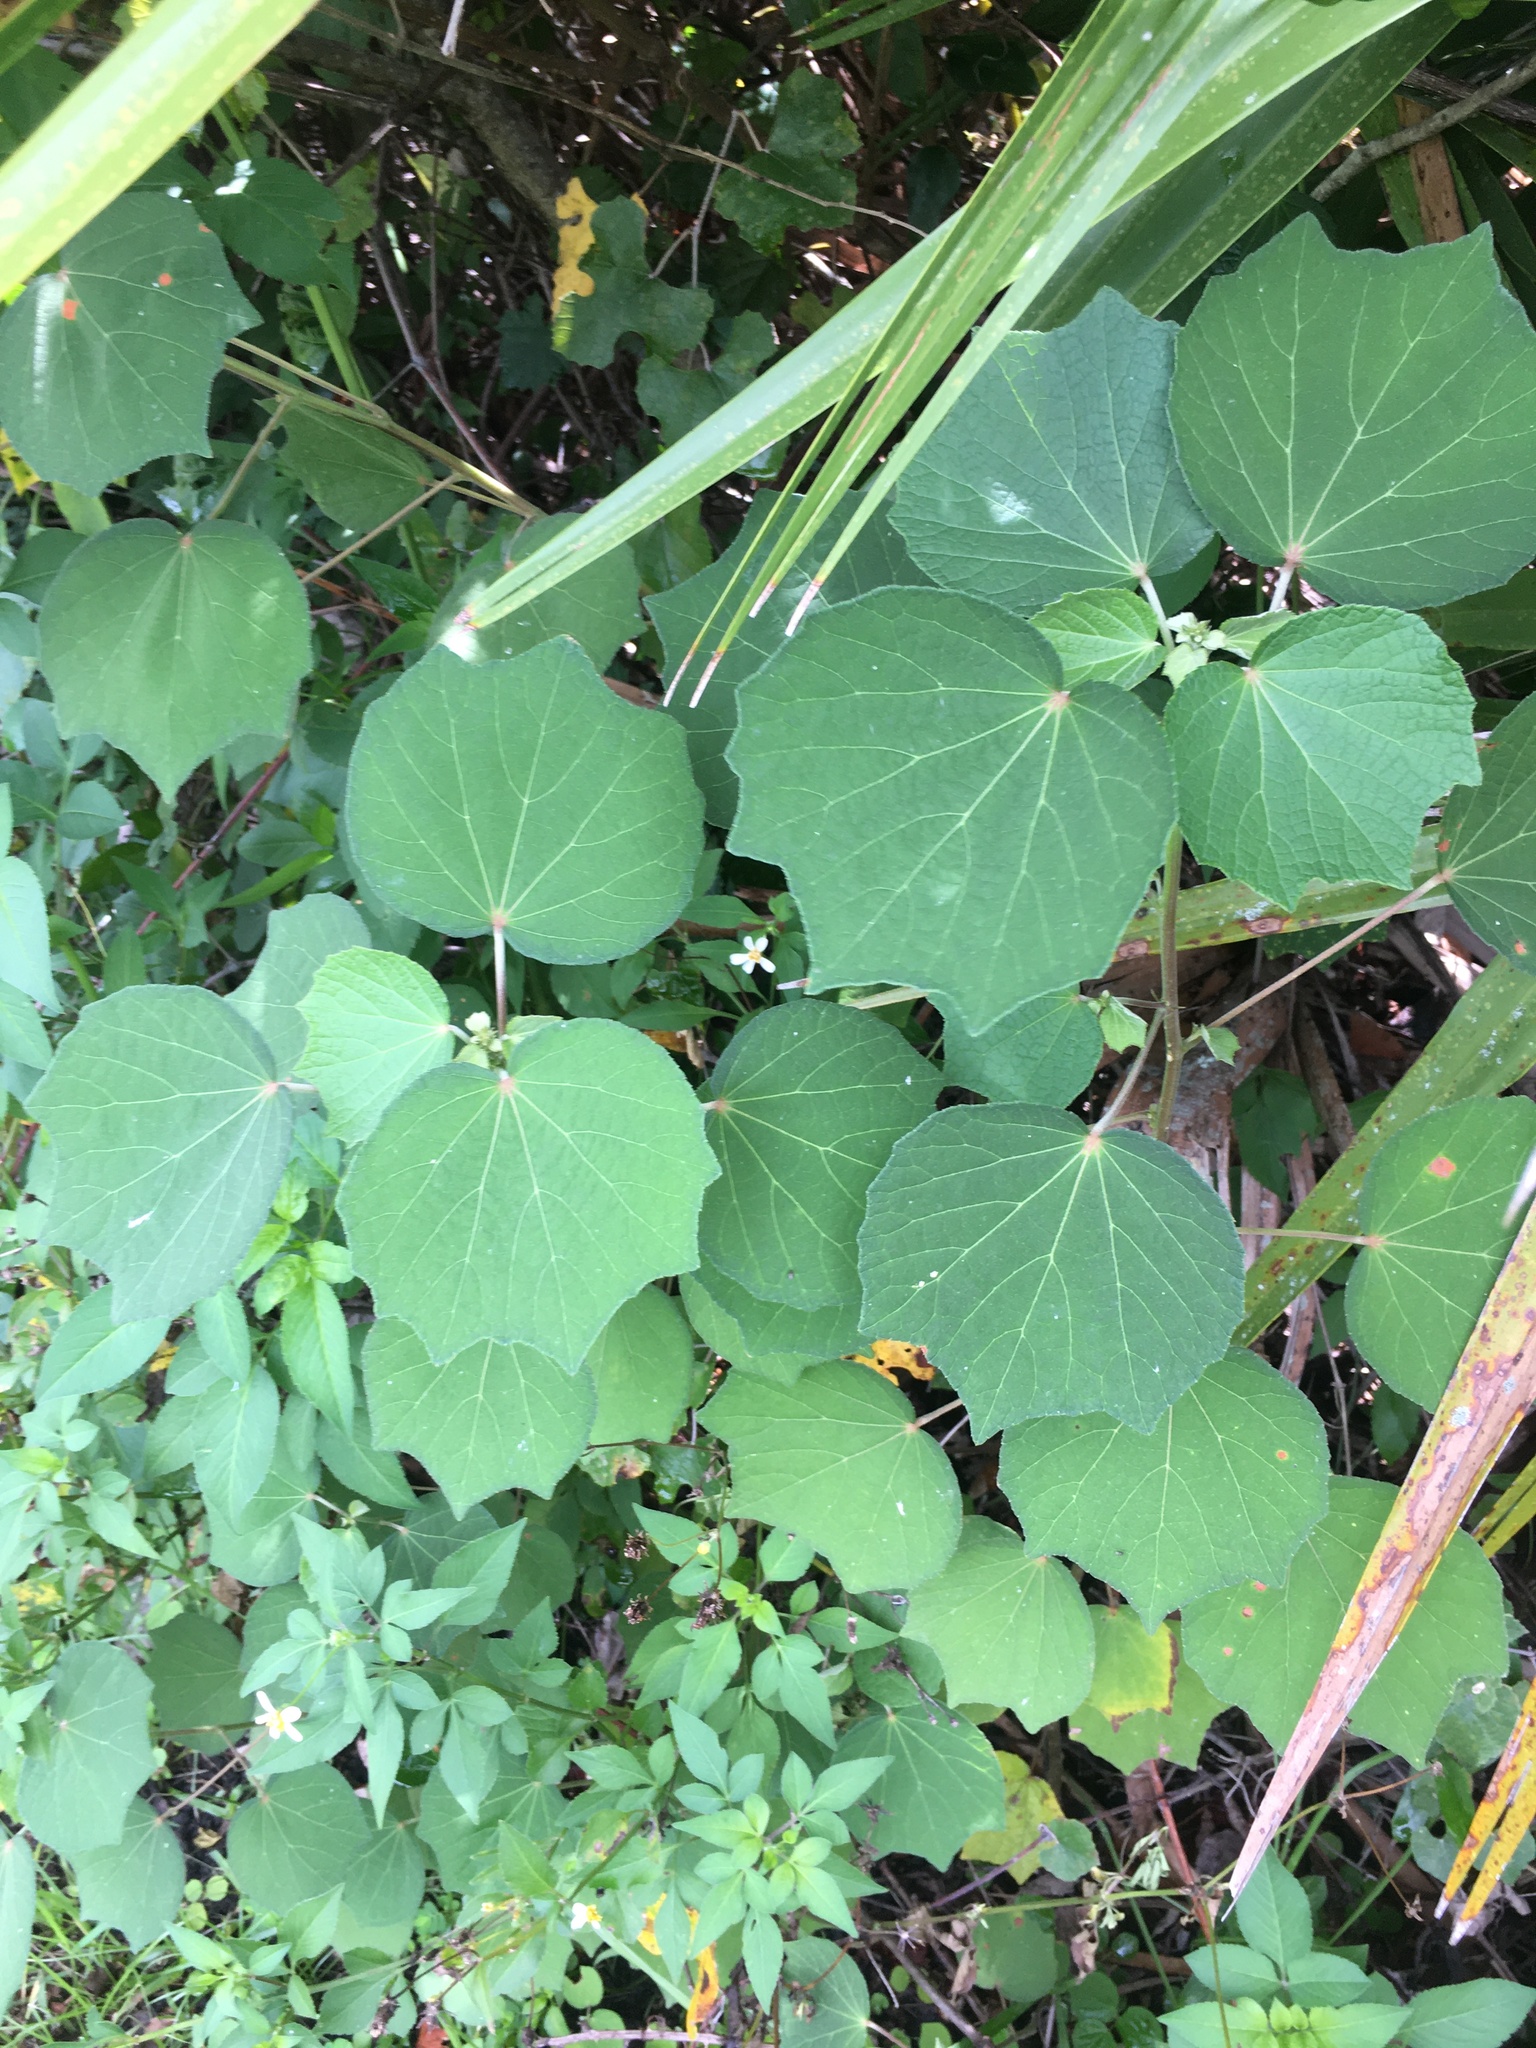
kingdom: Plantae
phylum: Tracheophyta
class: Magnoliopsida
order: Malvales
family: Malvaceae
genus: Urena
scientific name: Urena lobata
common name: Caesarweed
